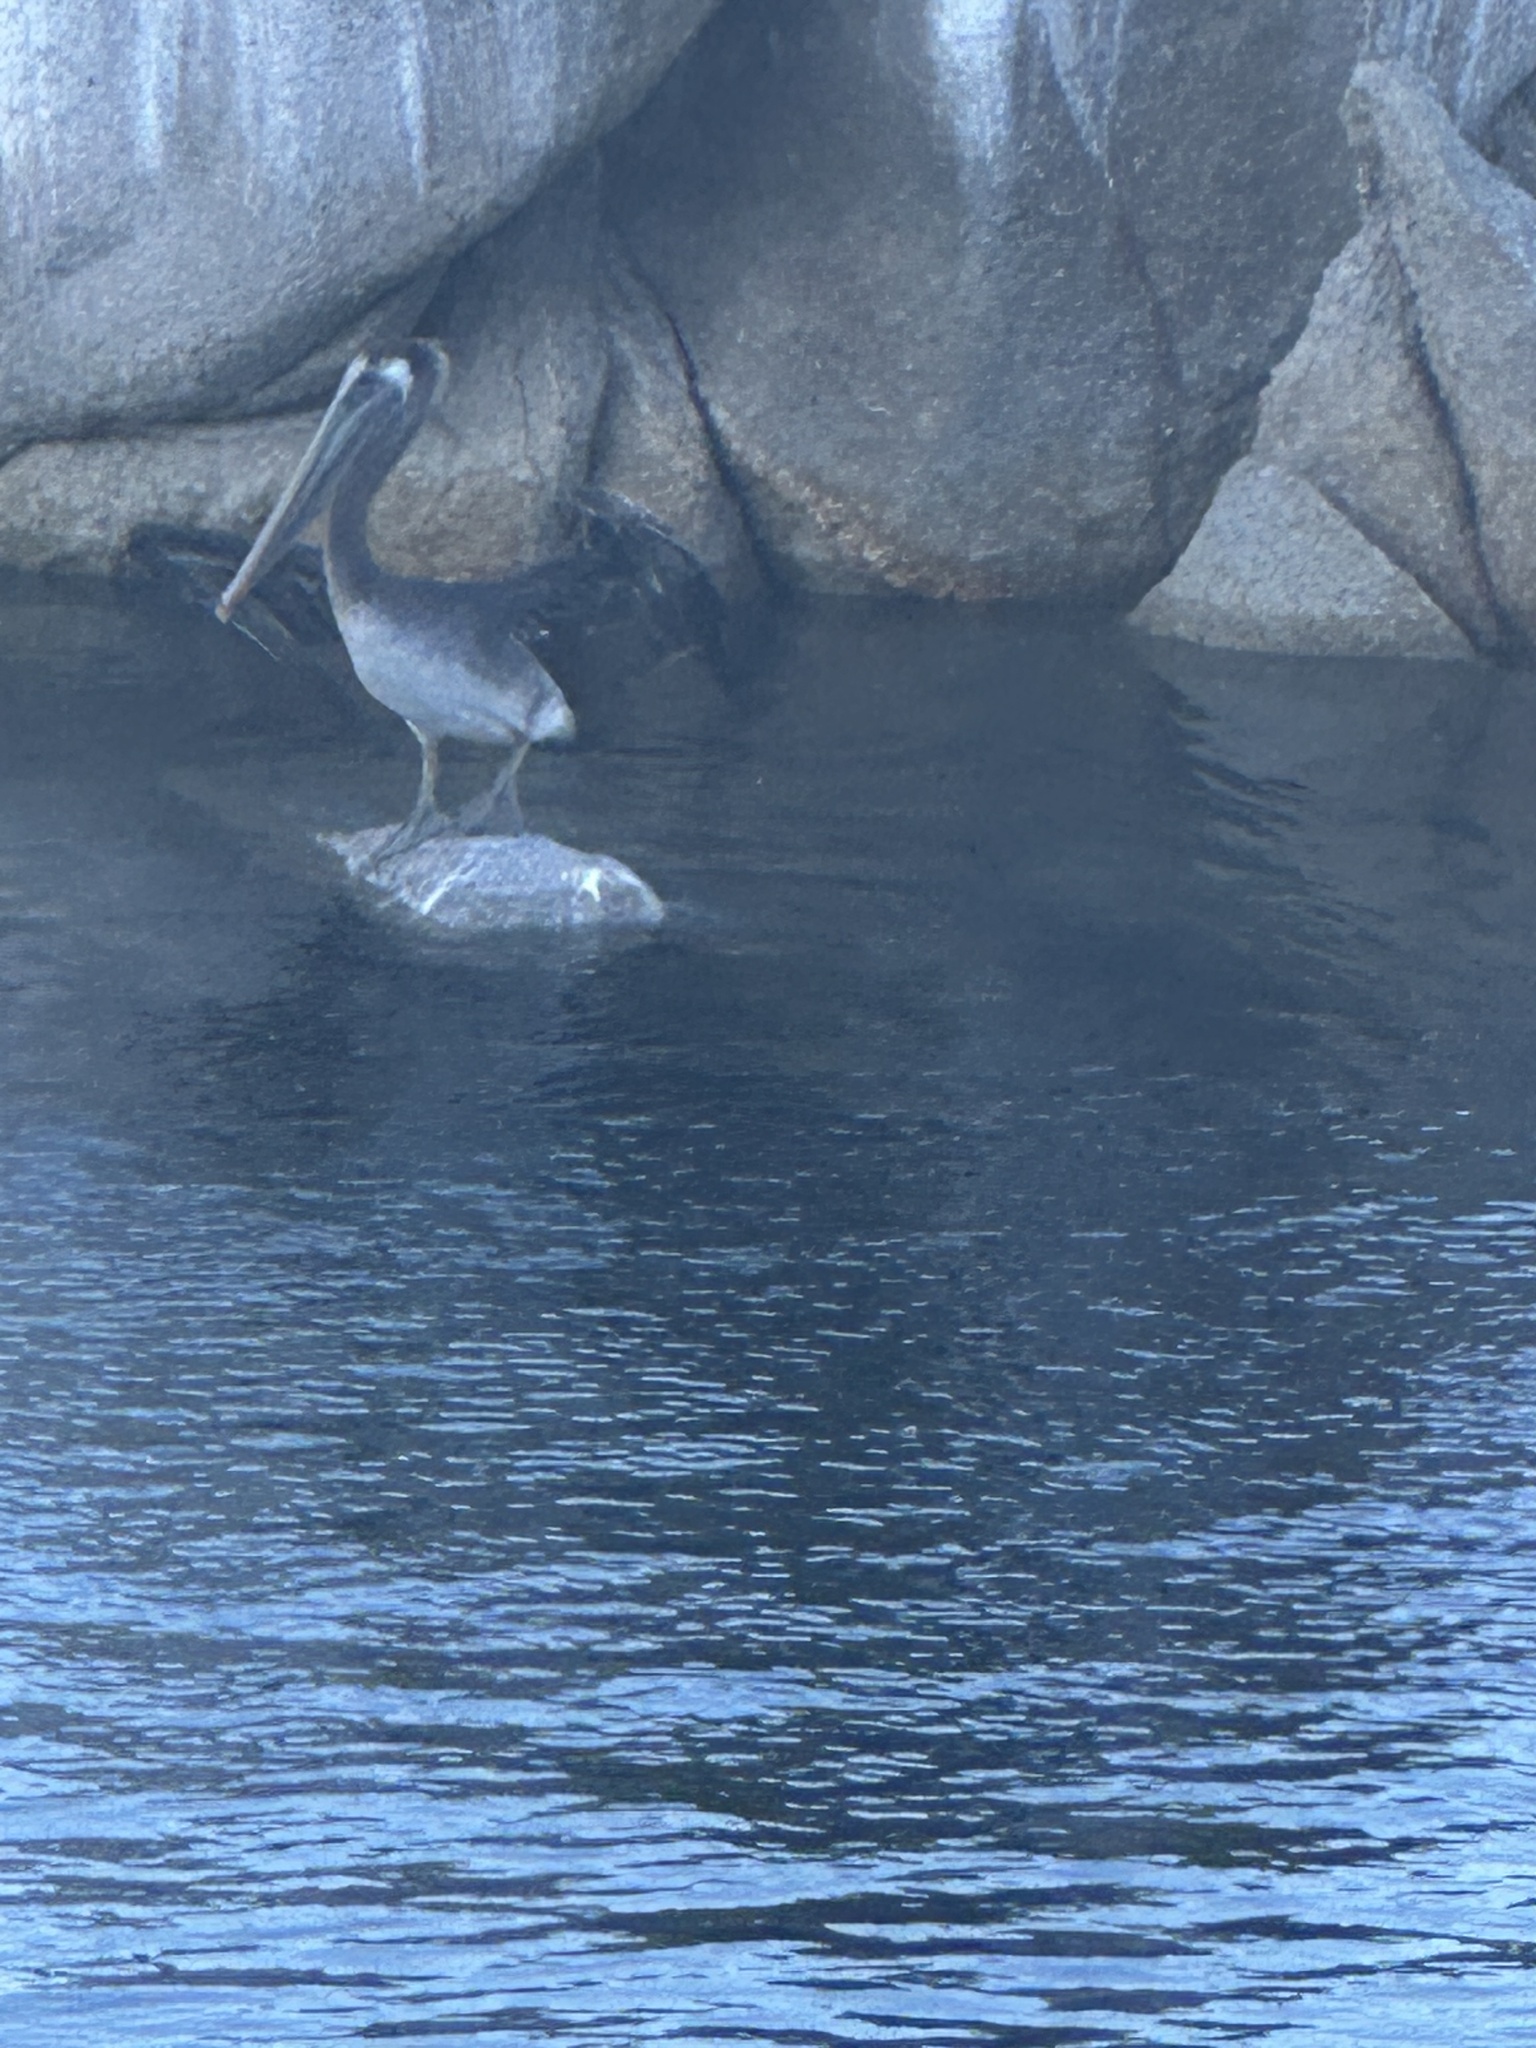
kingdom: Animalia
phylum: Chordata
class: Aves
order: Pelecaniformes
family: Pelecanidae
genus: Pelecanus
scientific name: Pelecanus occidentalis
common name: Brown pelican
